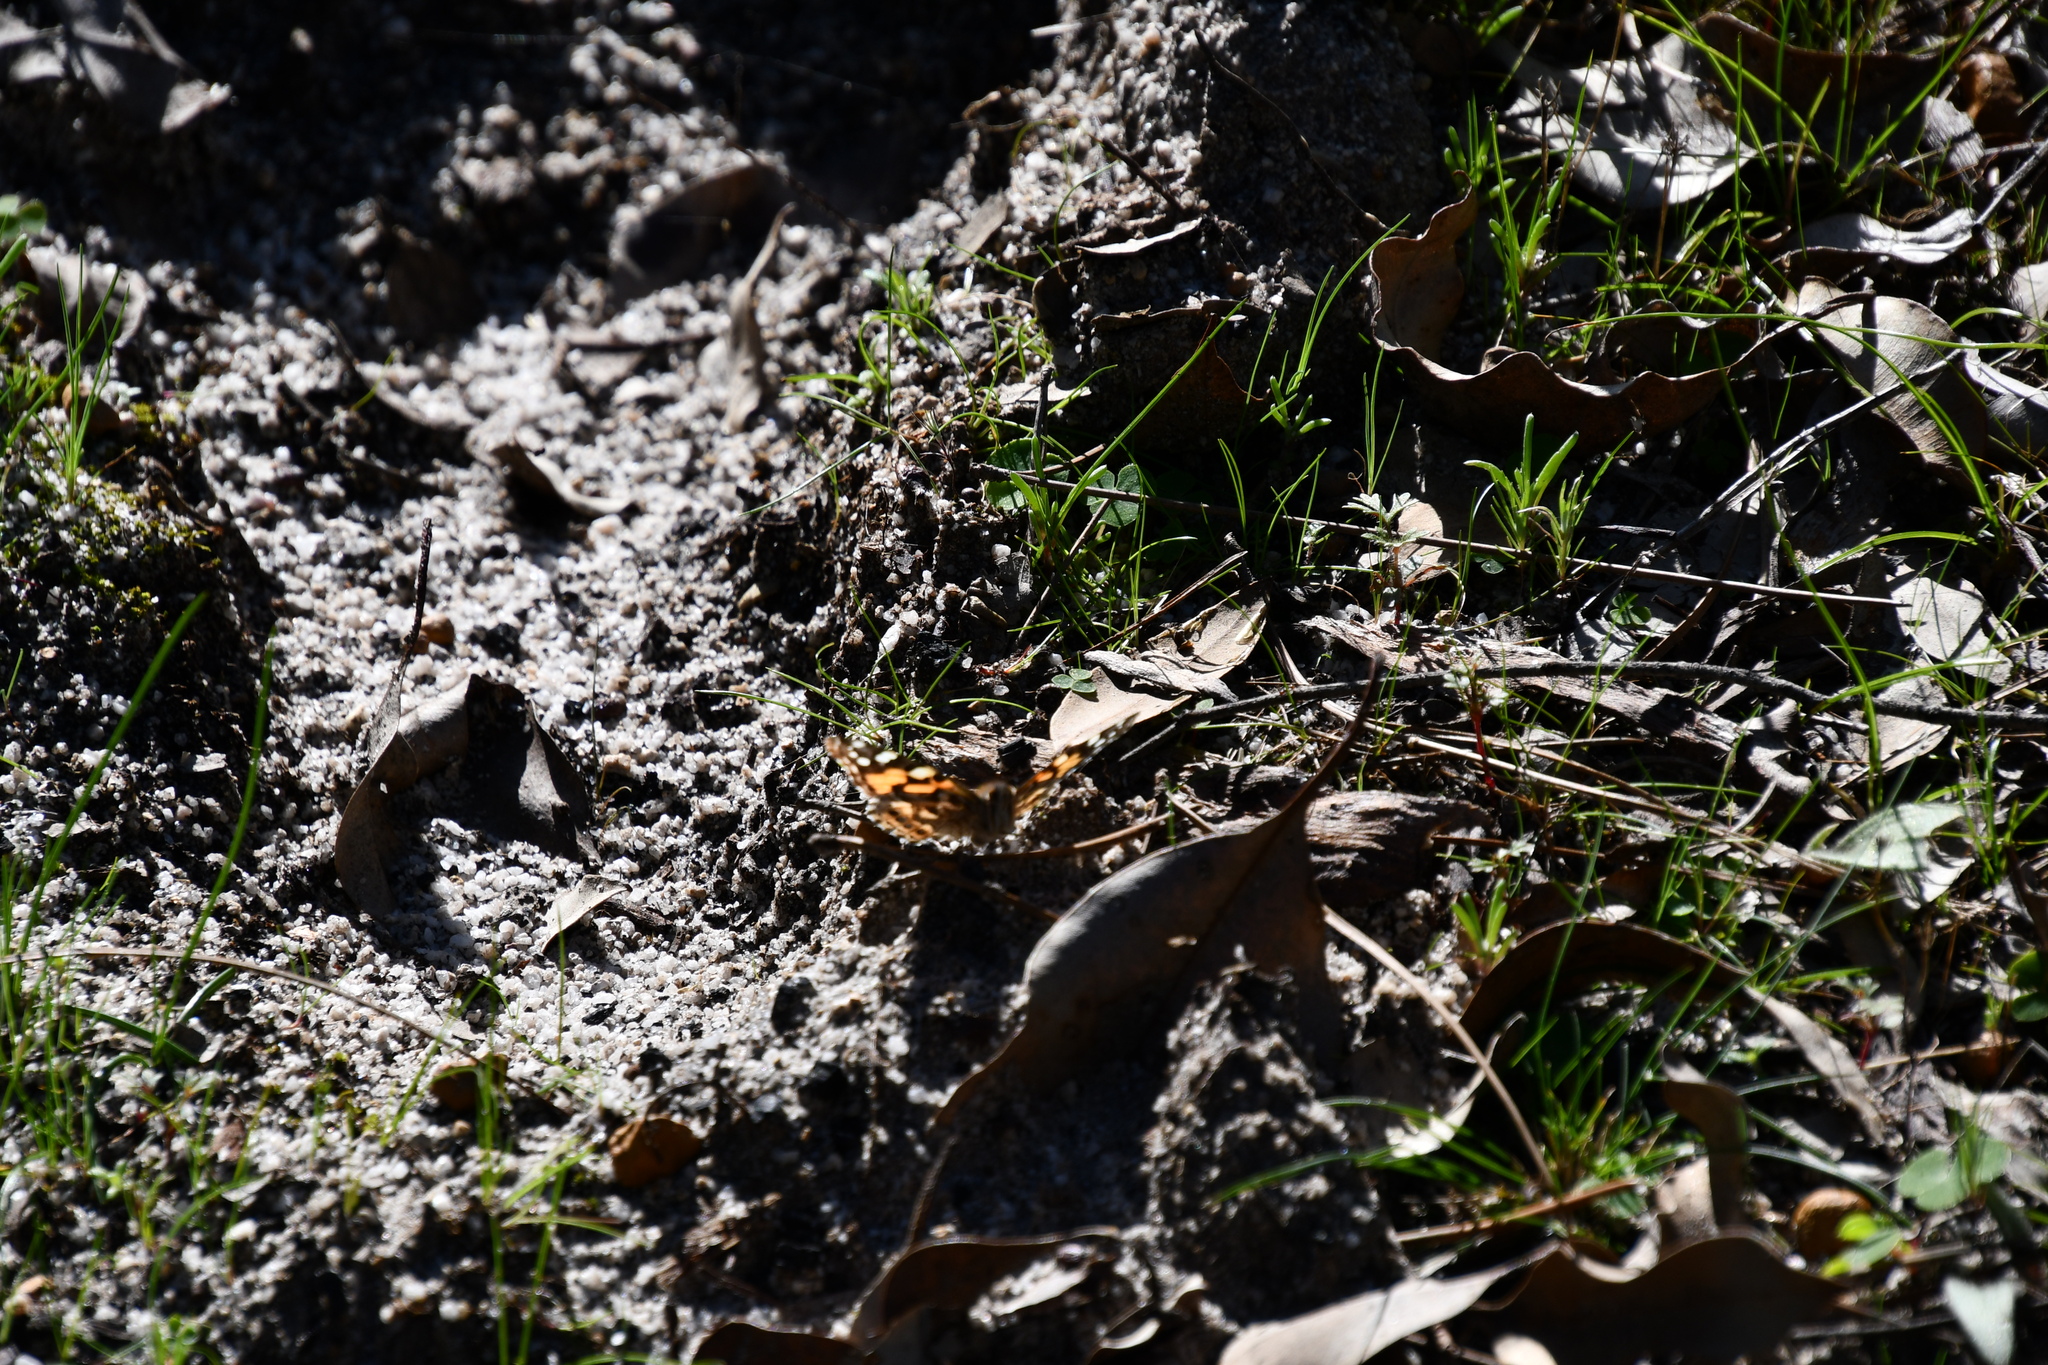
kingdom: Animalia
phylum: Arthropoda
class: Insecta
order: Lepidoptera
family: Nymphalidae
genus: Vanessa
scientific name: Vanessa kershawi
